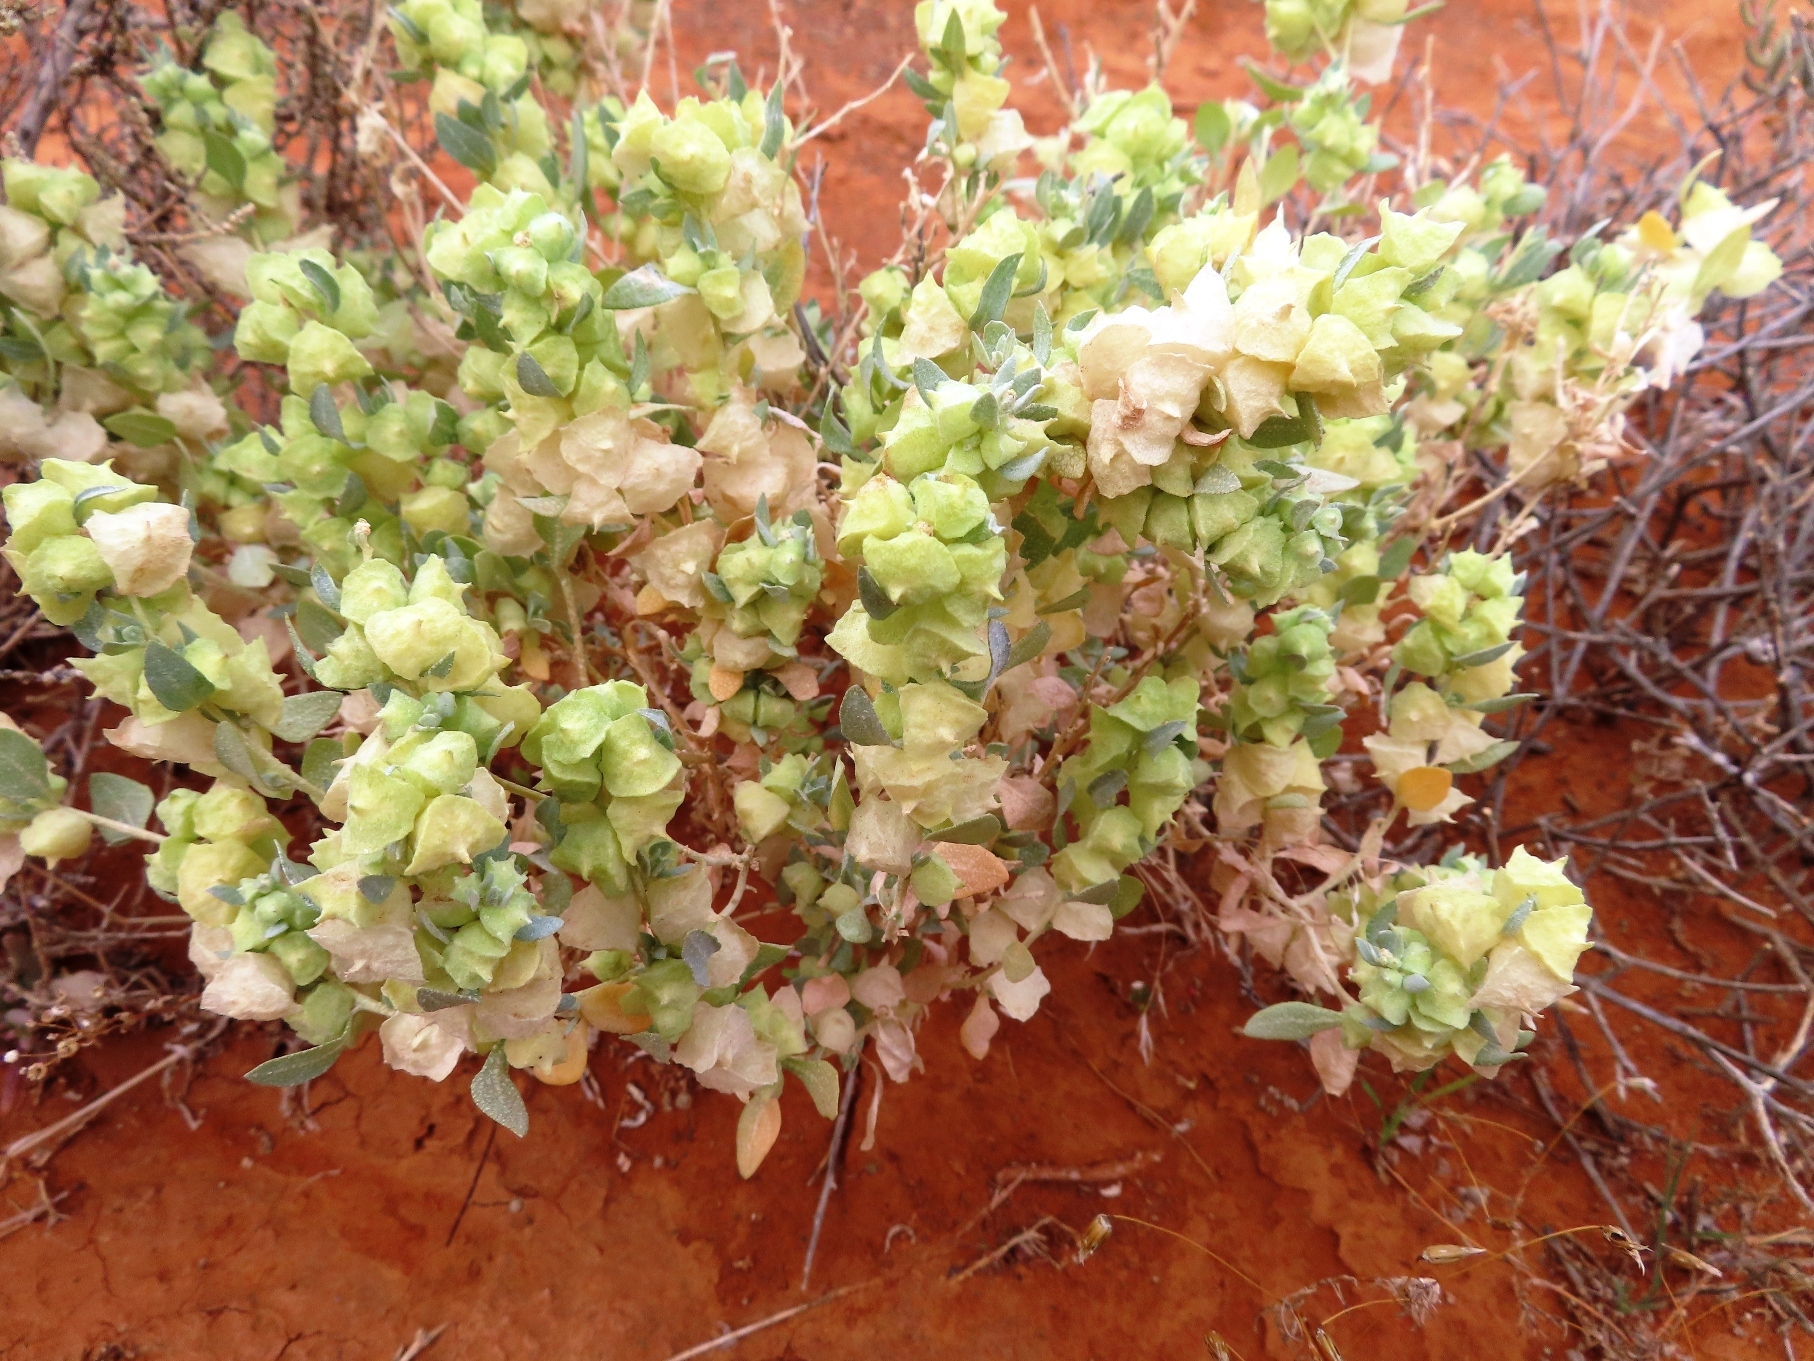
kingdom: Plantae
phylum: Tracheophyta
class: Magnoliopsida
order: Caryophyllales
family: Amaranthaceae
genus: Atriplex
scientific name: Atriplex lindleyi
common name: Lindley's saltbush
